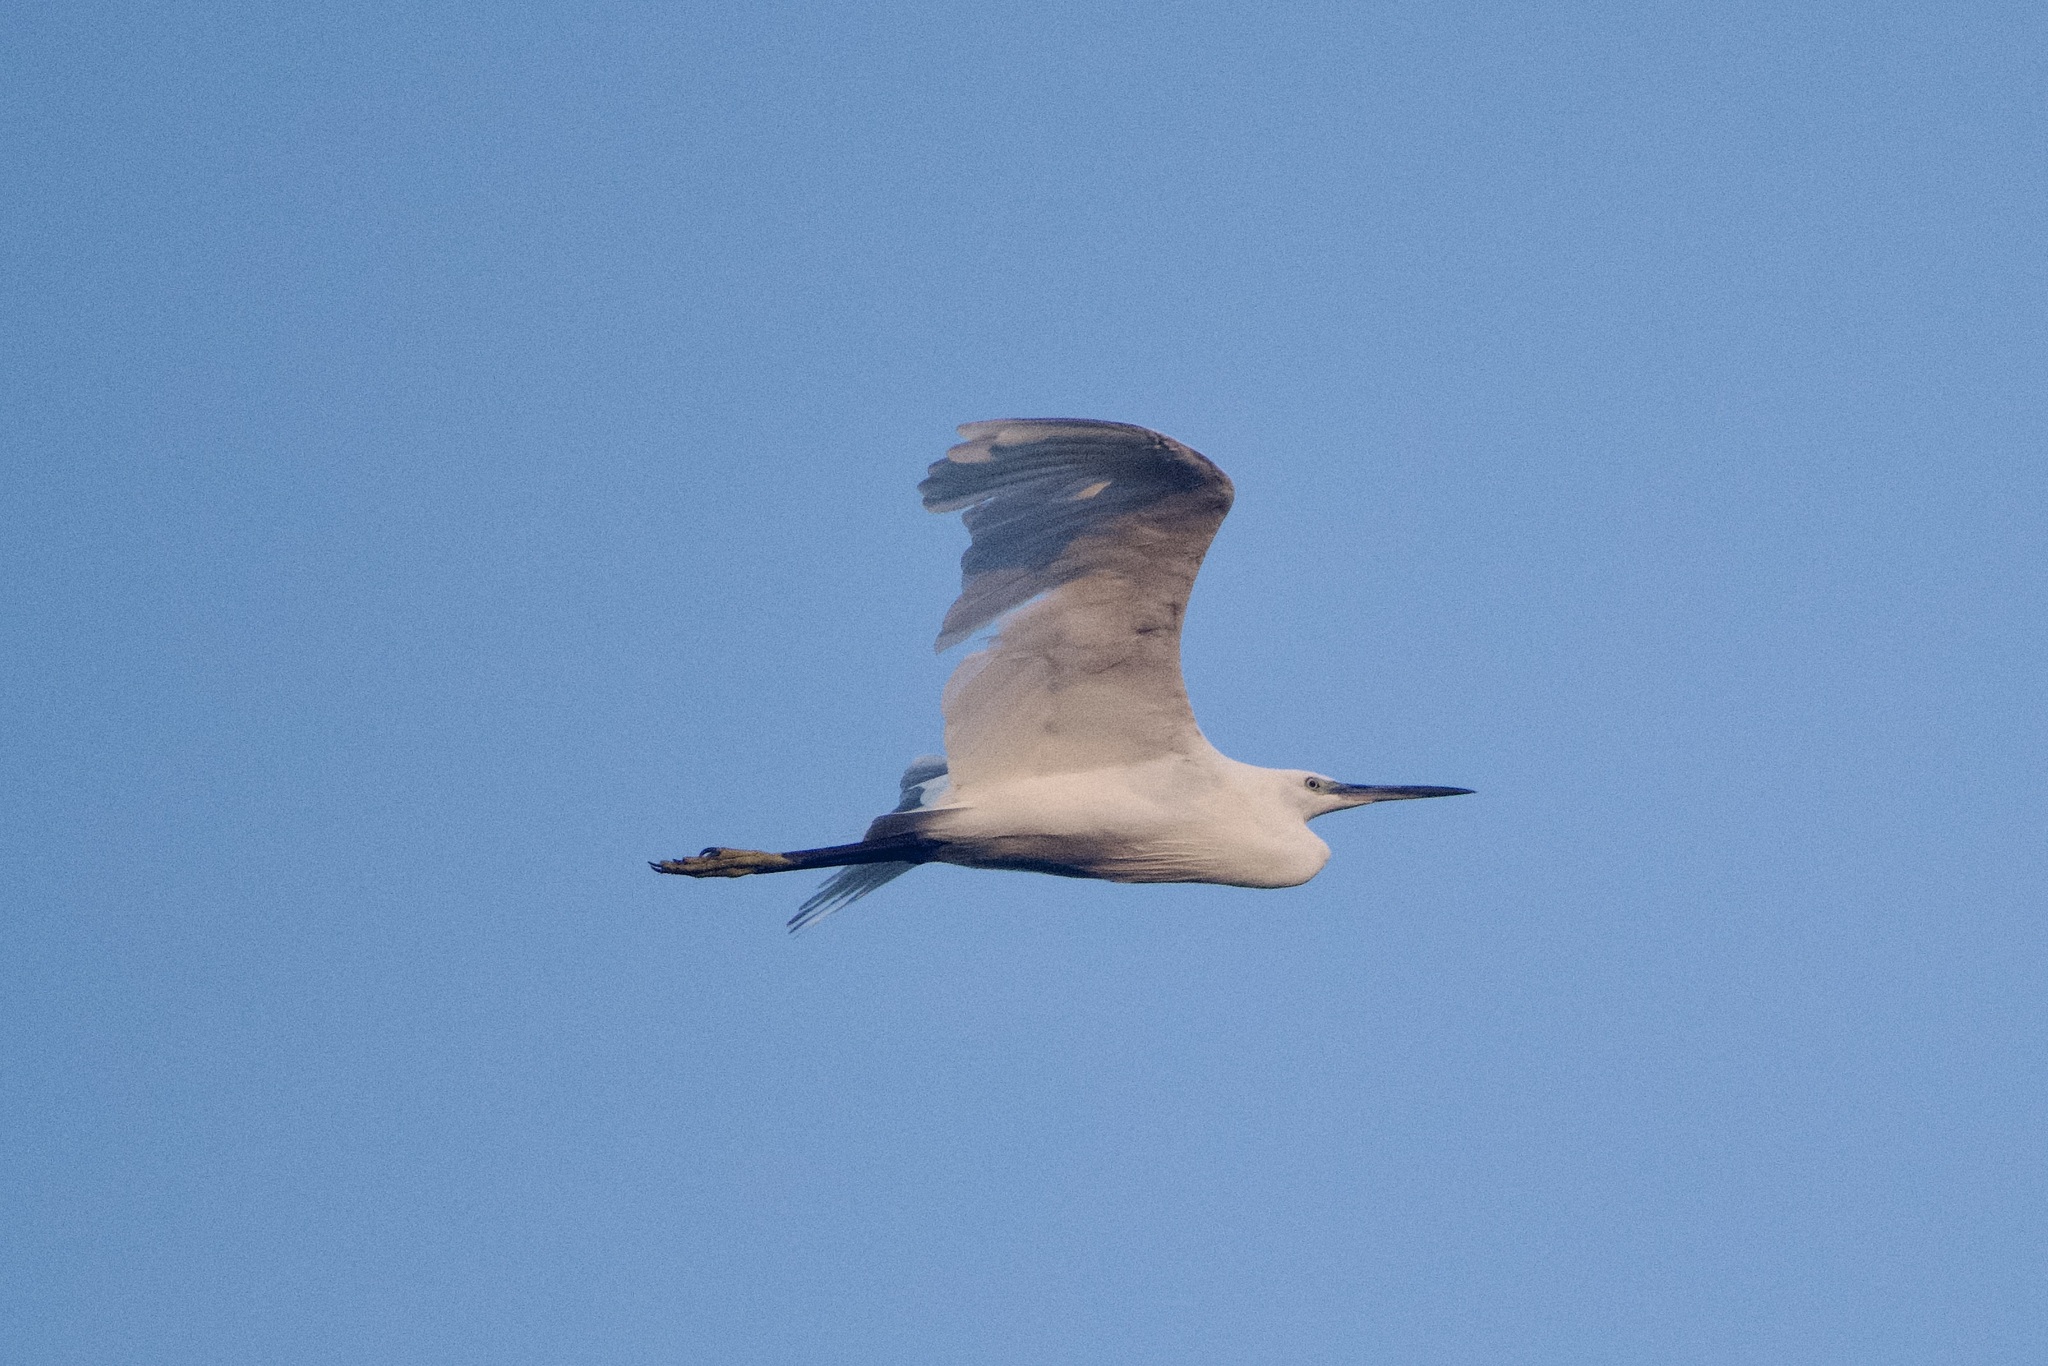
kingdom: Animalia
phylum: Chordata
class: Aves
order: Pelecaniformes
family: Ardeidae
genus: Egretta
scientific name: Egretta garzetta
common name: Little egret
